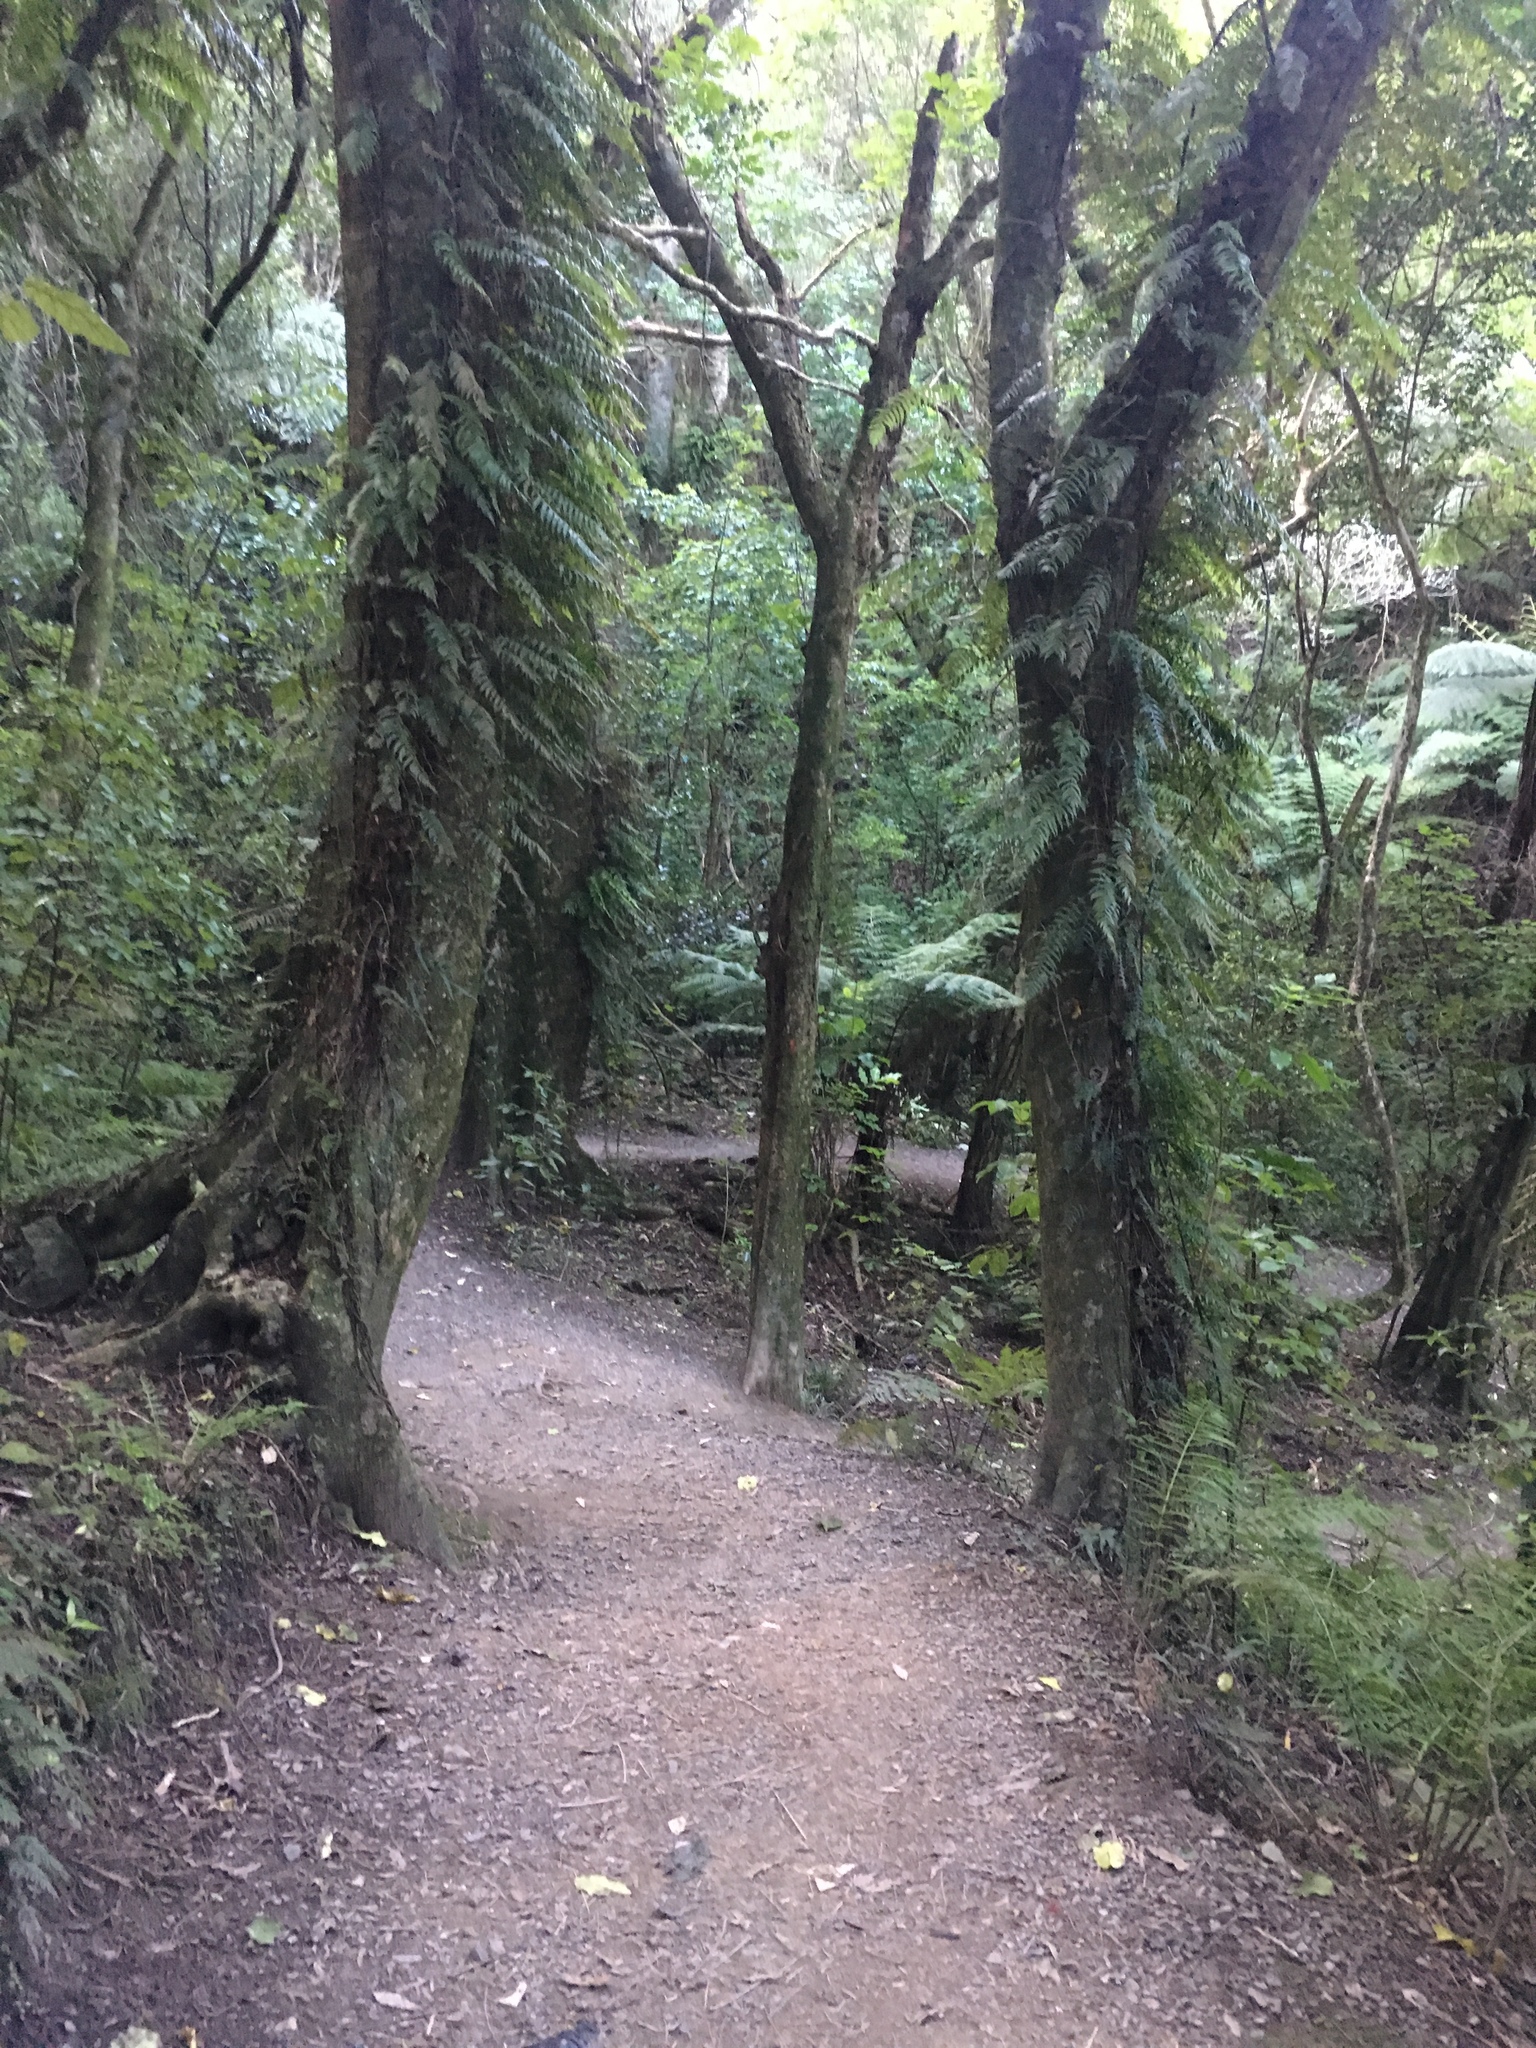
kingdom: Plantae
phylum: Tracheophyta
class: Polypodiopsida
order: Polypodiales
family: Blechnaceae
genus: Icarus
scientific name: Icarus filiformis
